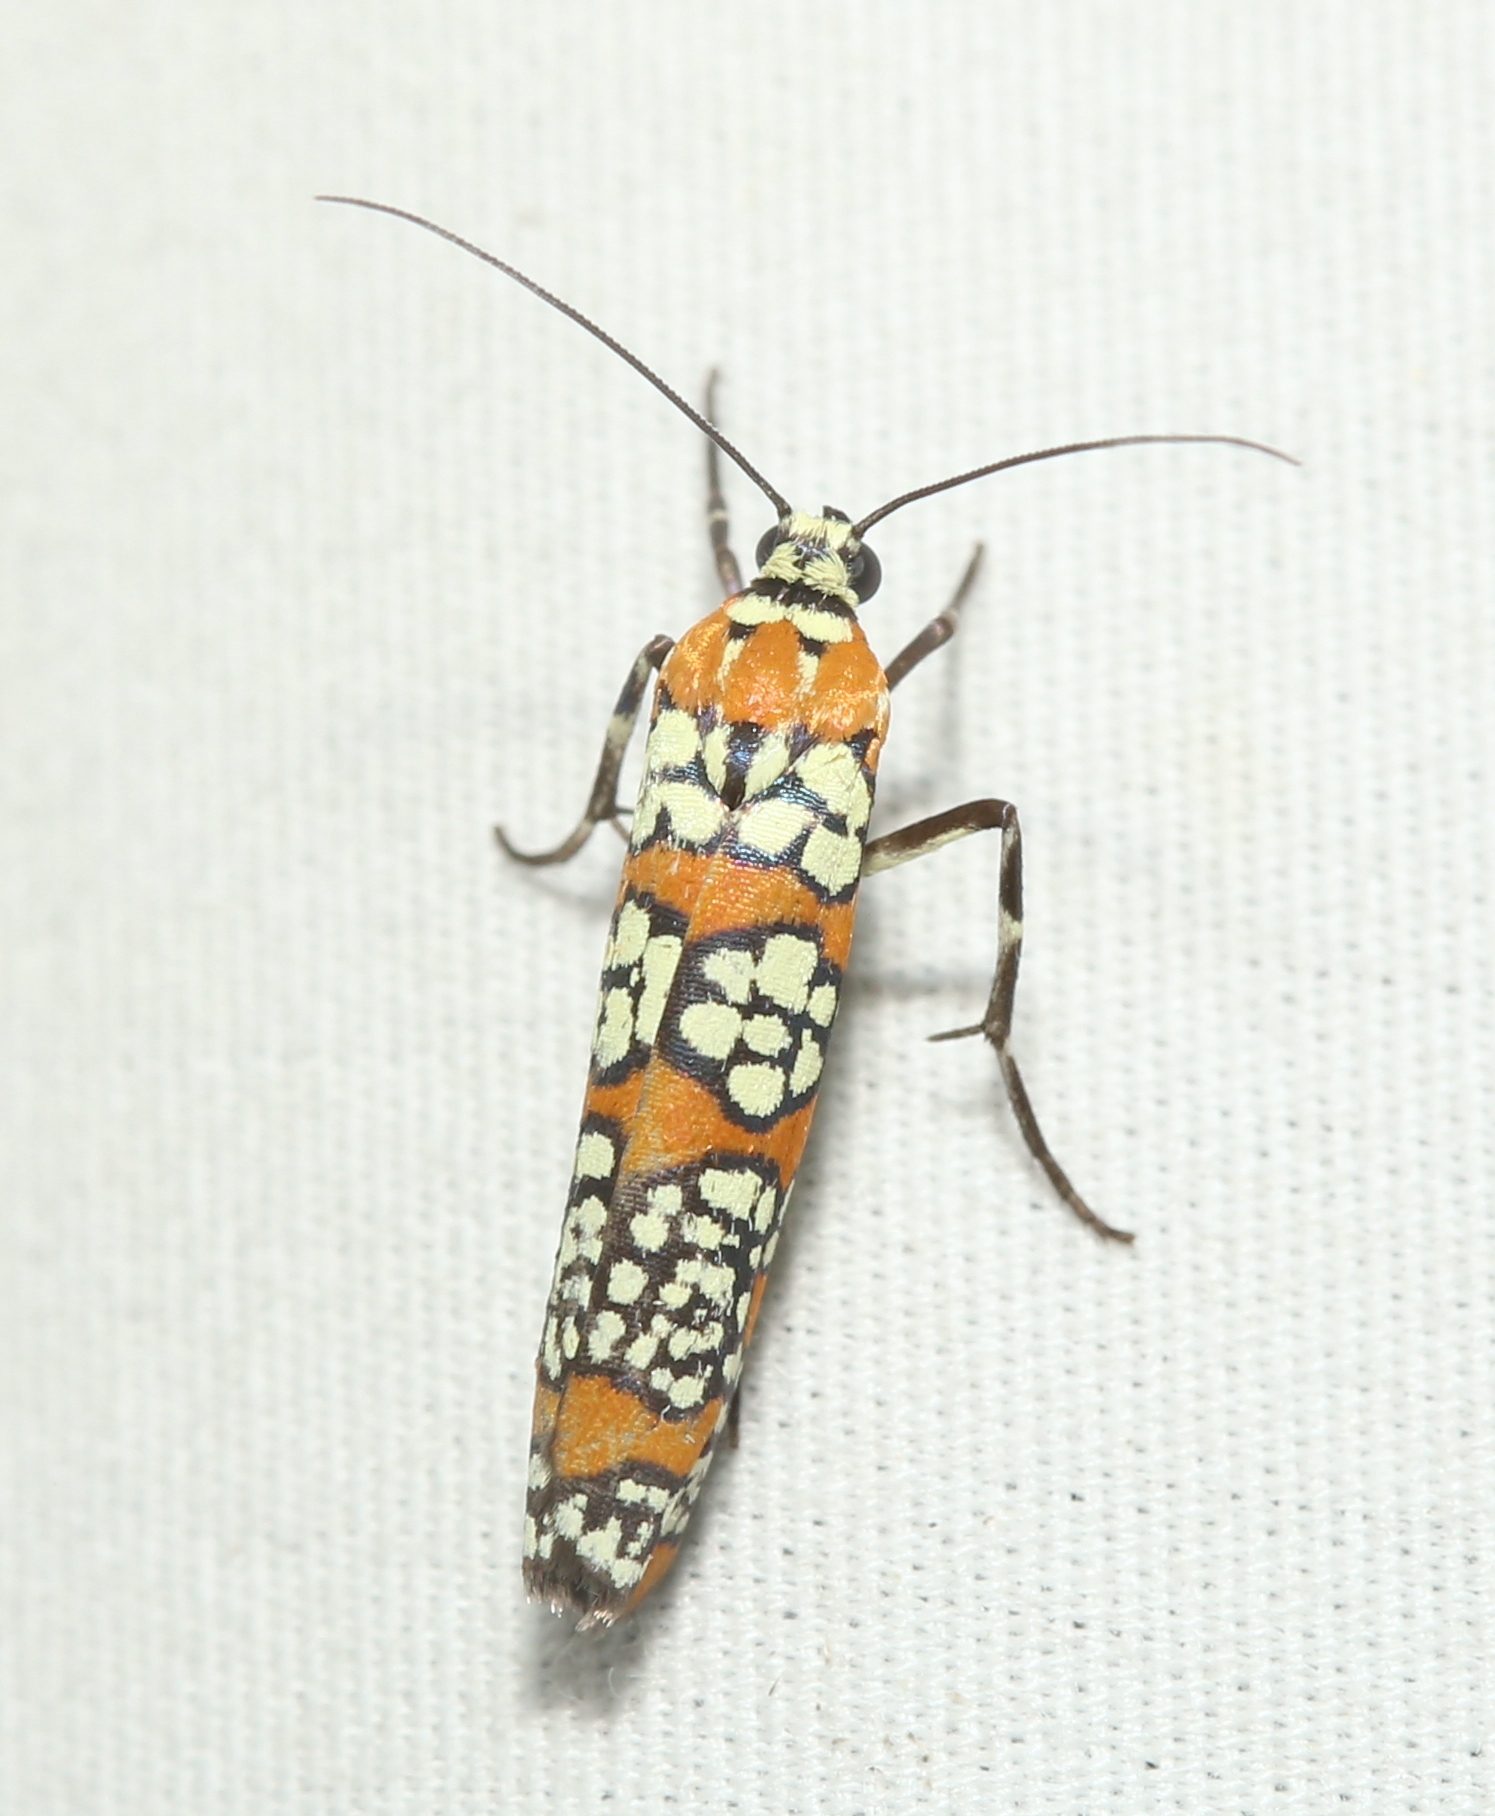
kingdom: Animalia
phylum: Arthropoda
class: Insecta
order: Lepidoptera
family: Attevidae
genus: Atteva
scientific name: Atteva punctella
